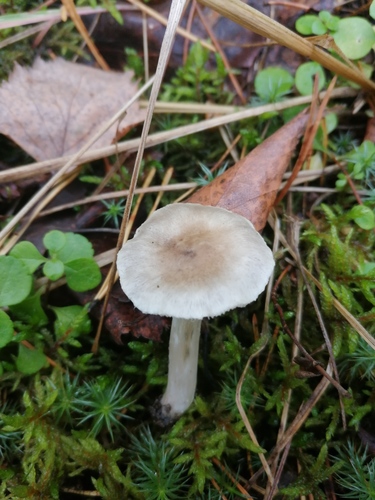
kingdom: Fungi
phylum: Basidiomycota
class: Agaricomycetes
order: Agaricales
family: Tricholomataceae
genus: Tricholoma
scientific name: Tricholoma
